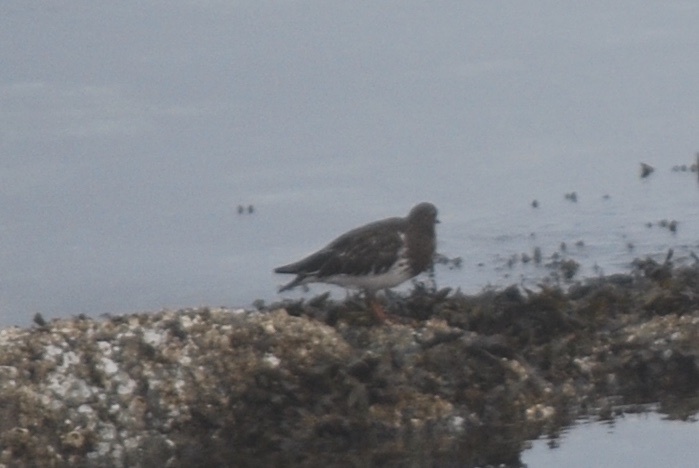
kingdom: Animalia
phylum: Chordata
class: Aves
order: Charadriiformes
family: Scolopacidae
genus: Arenaria
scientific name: Arenaria melanocephala
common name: Black turnstone
